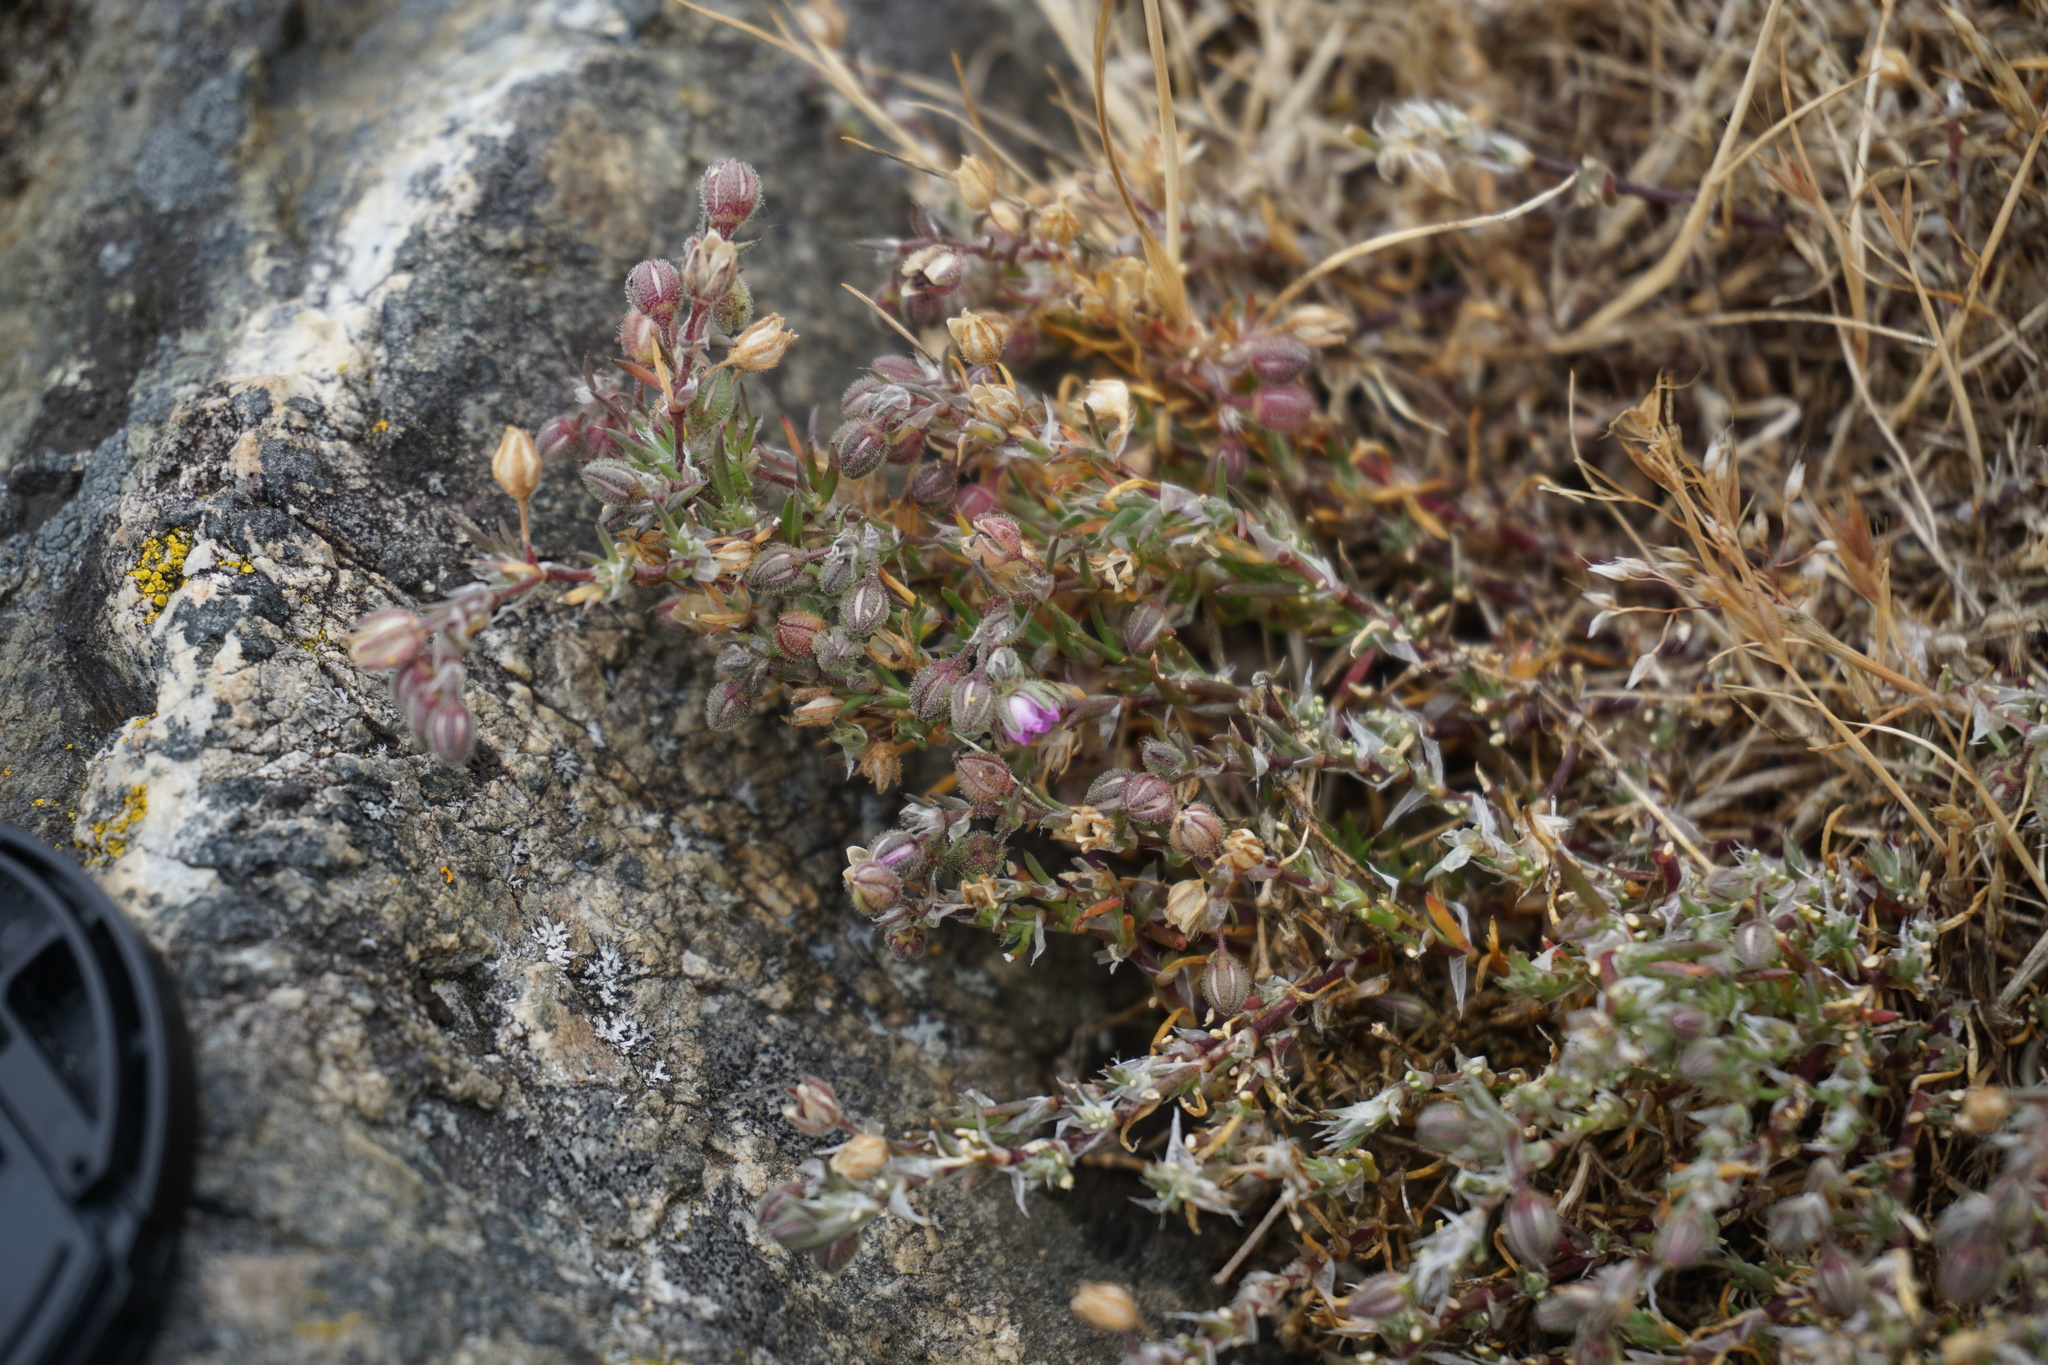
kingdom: Plantae
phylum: Tracheophyta
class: Magnoliopsida
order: Caryophyllales
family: Caryophyllaceae
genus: Spergularia
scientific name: Spergularia rubra
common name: Red sand-spurrey
